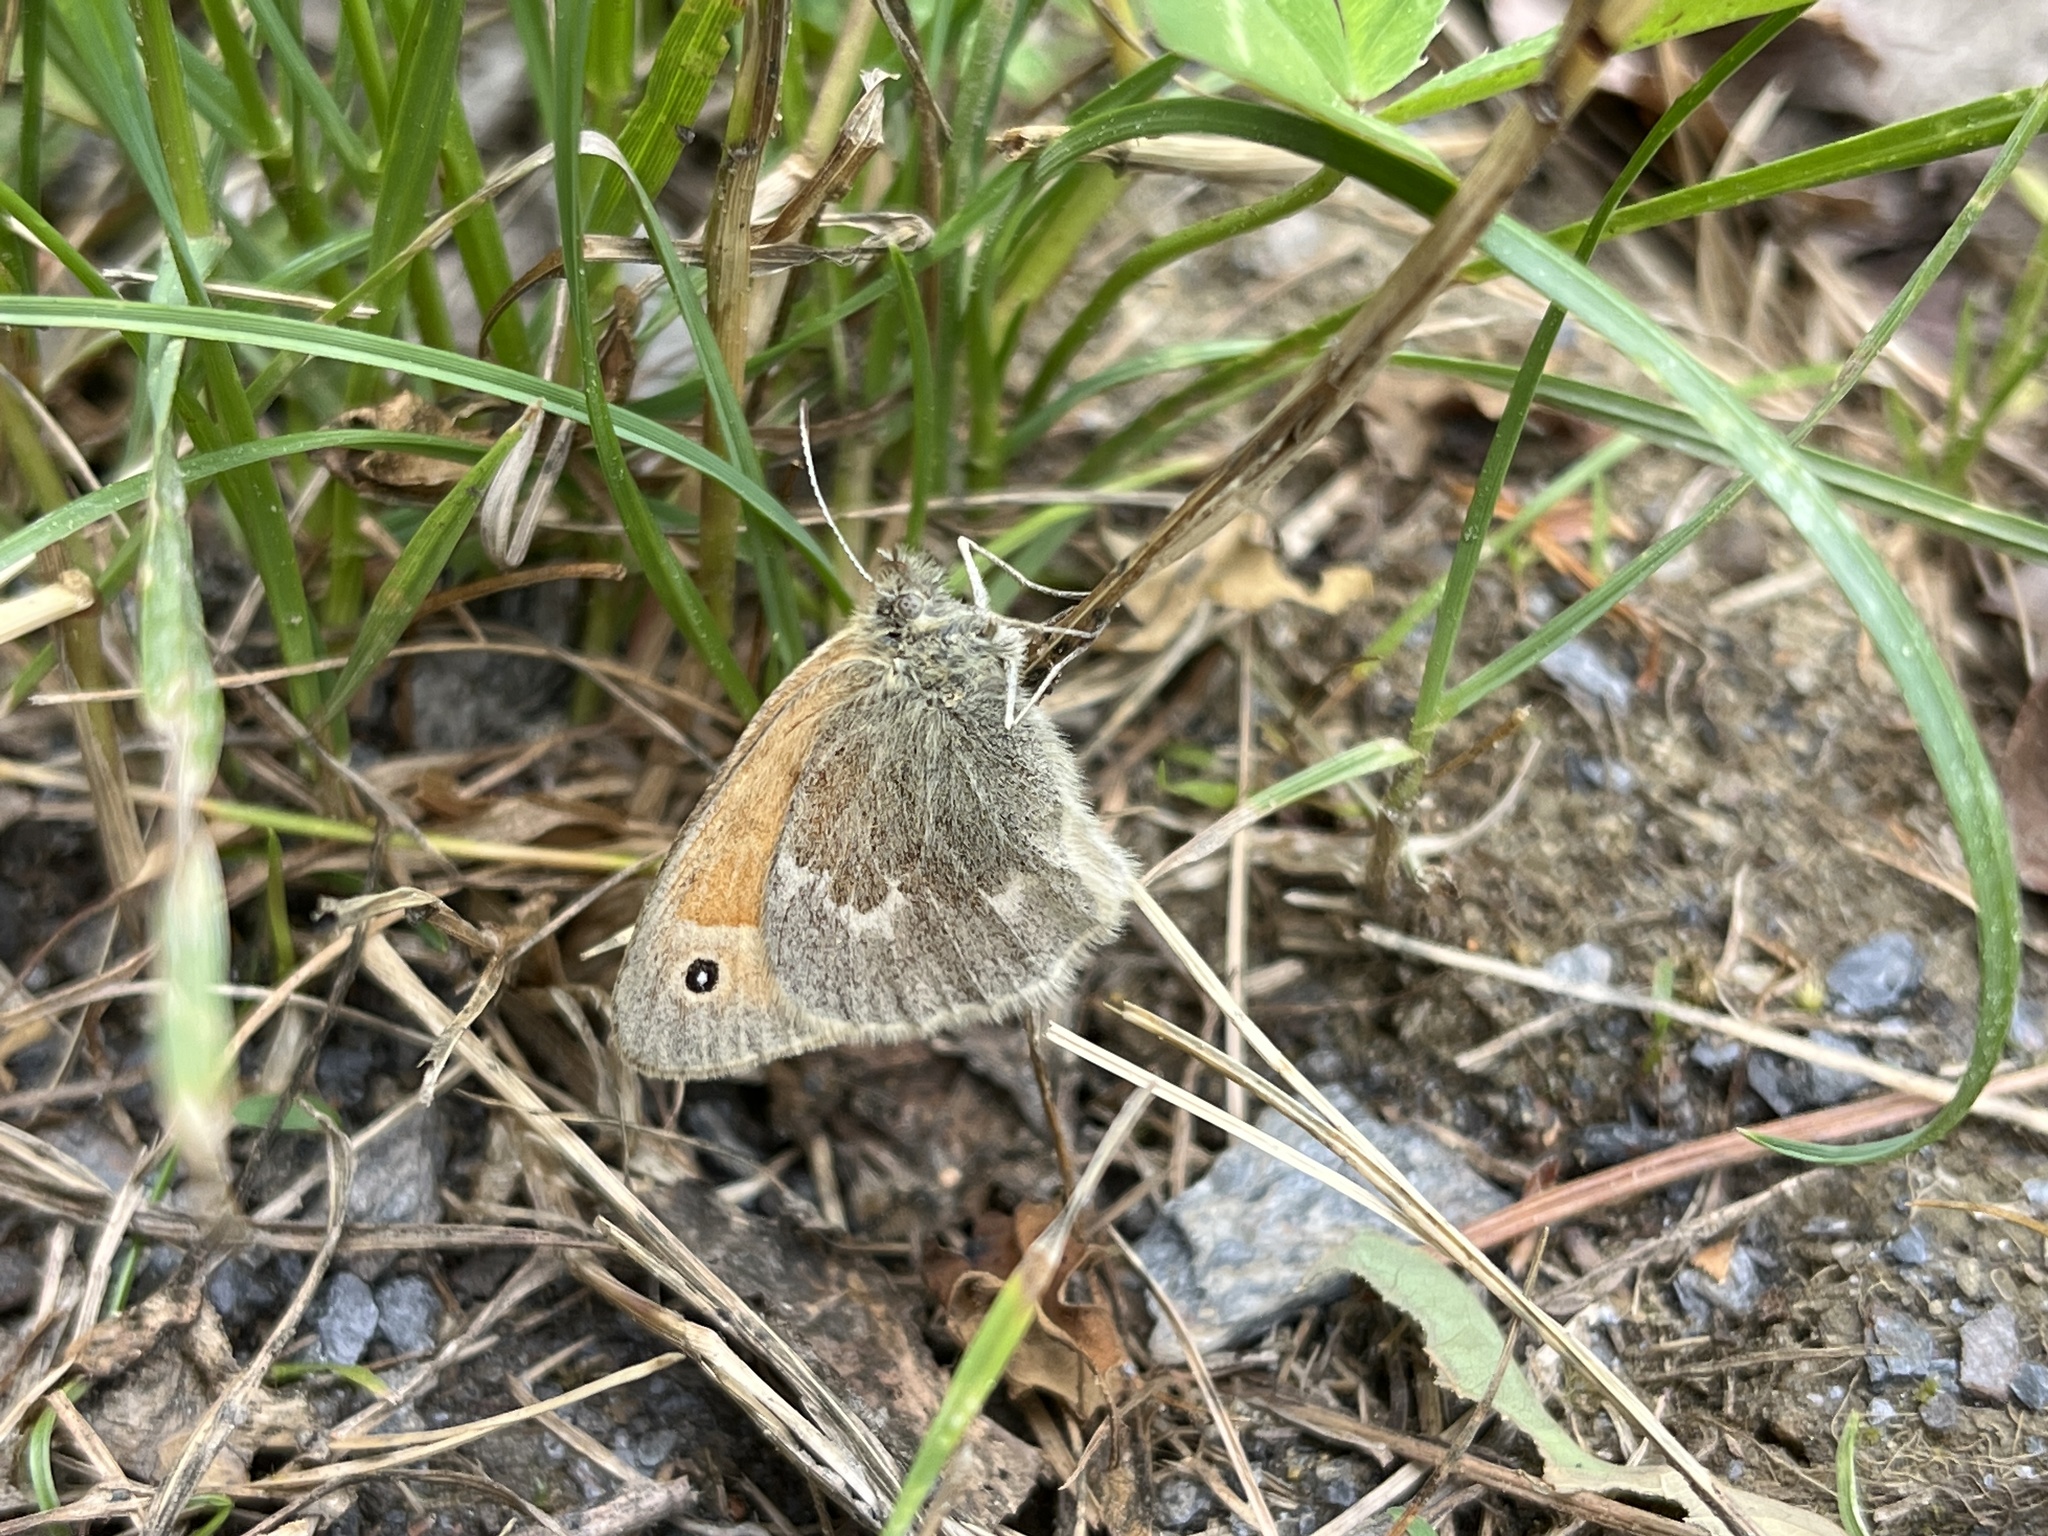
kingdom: Animalia
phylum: Arthropoda
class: Insecta
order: Lepidoptera
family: Nymphalidae
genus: Coenonympha
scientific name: Coenonympha california
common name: Common ringlet
